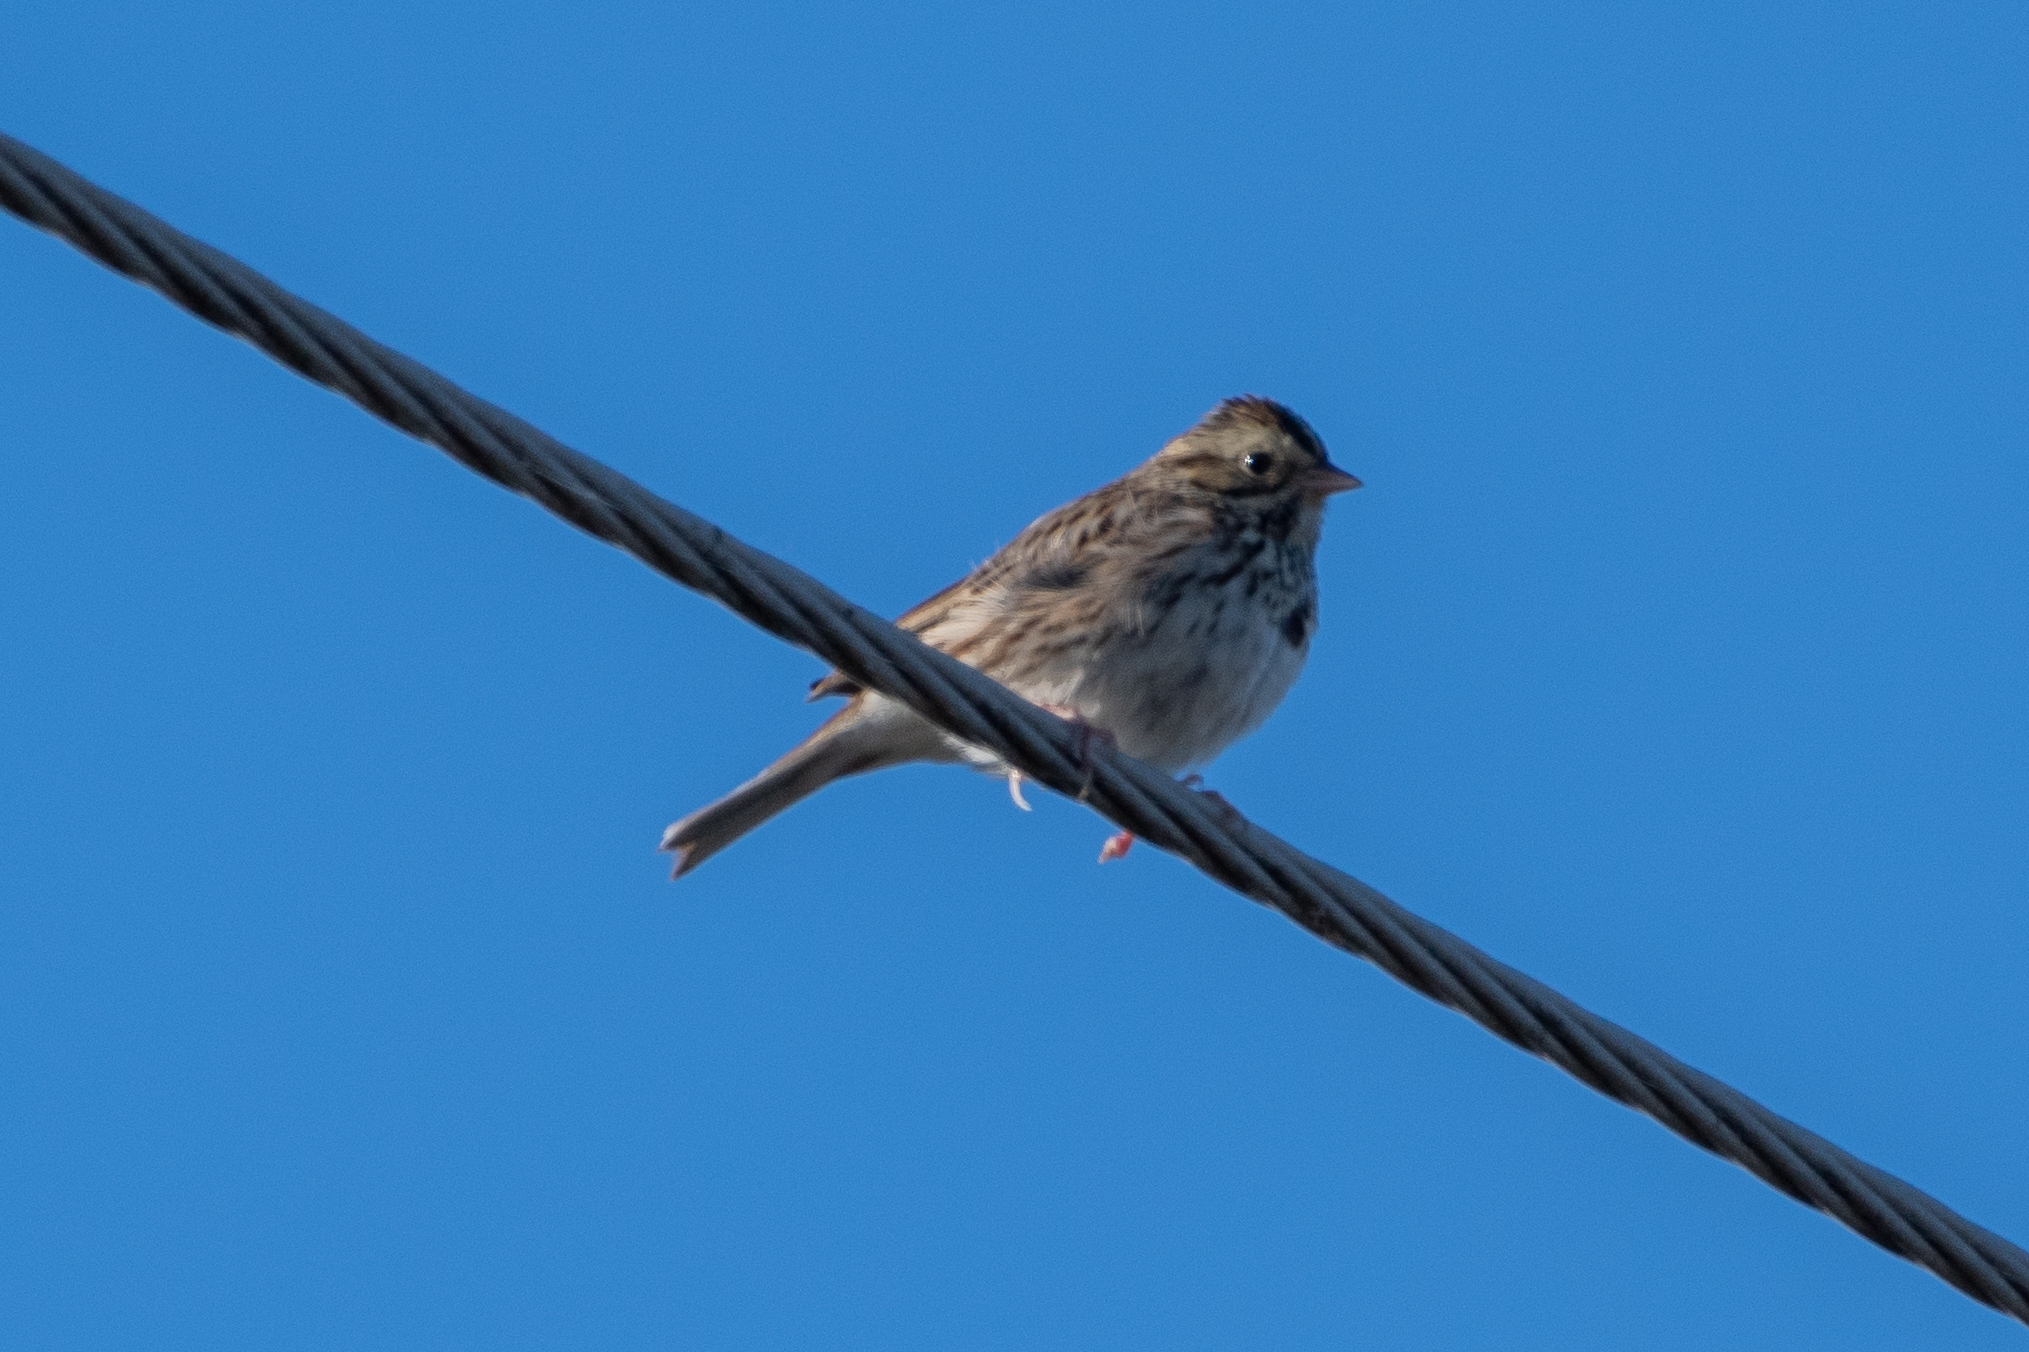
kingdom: Animalia
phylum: Chordata
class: Aves
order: Passeriformes
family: Passerellidae
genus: Passerculus
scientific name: Passerculus sandwichensis
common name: Savannah sparrow
